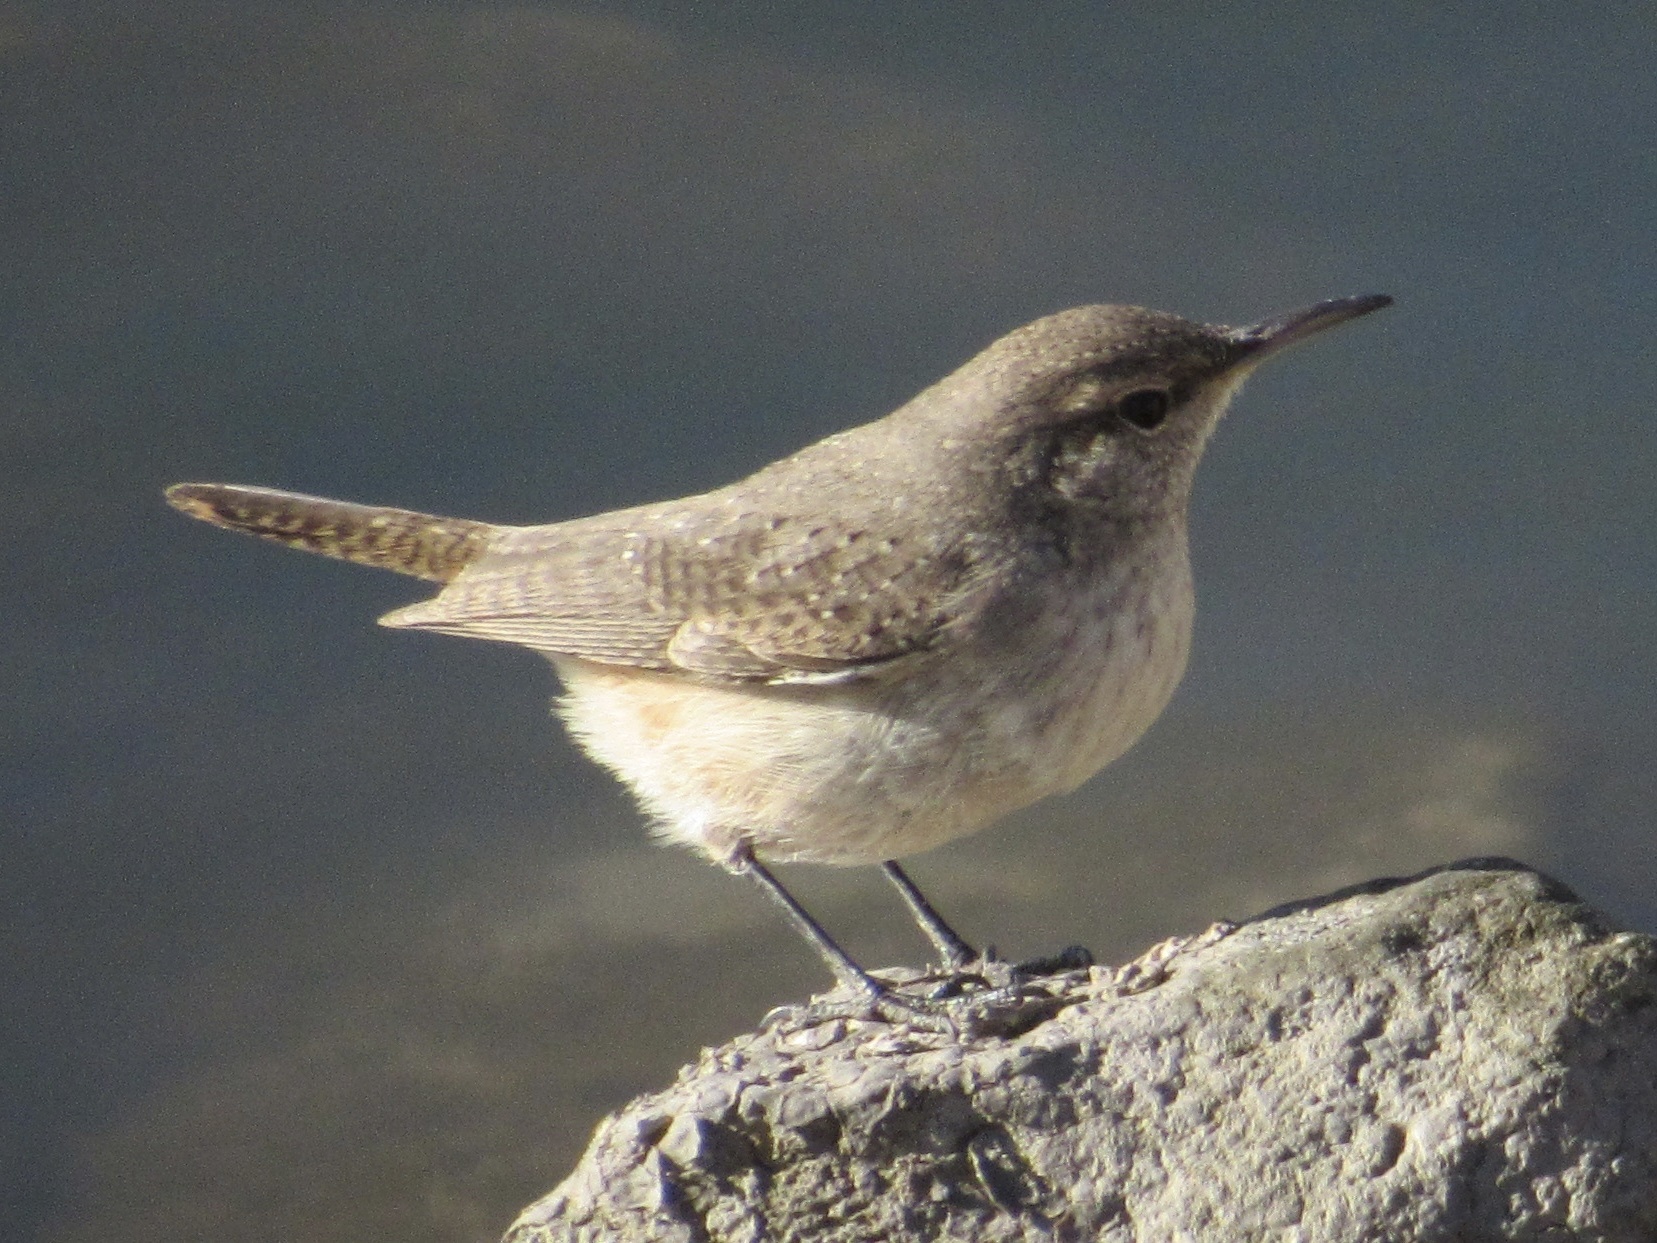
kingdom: Animalia
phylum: Chordata
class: Aves
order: Passeriformes
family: Troglodytidae
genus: Salpinctes
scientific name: Salpinctes obsoletus
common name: Rock wren
